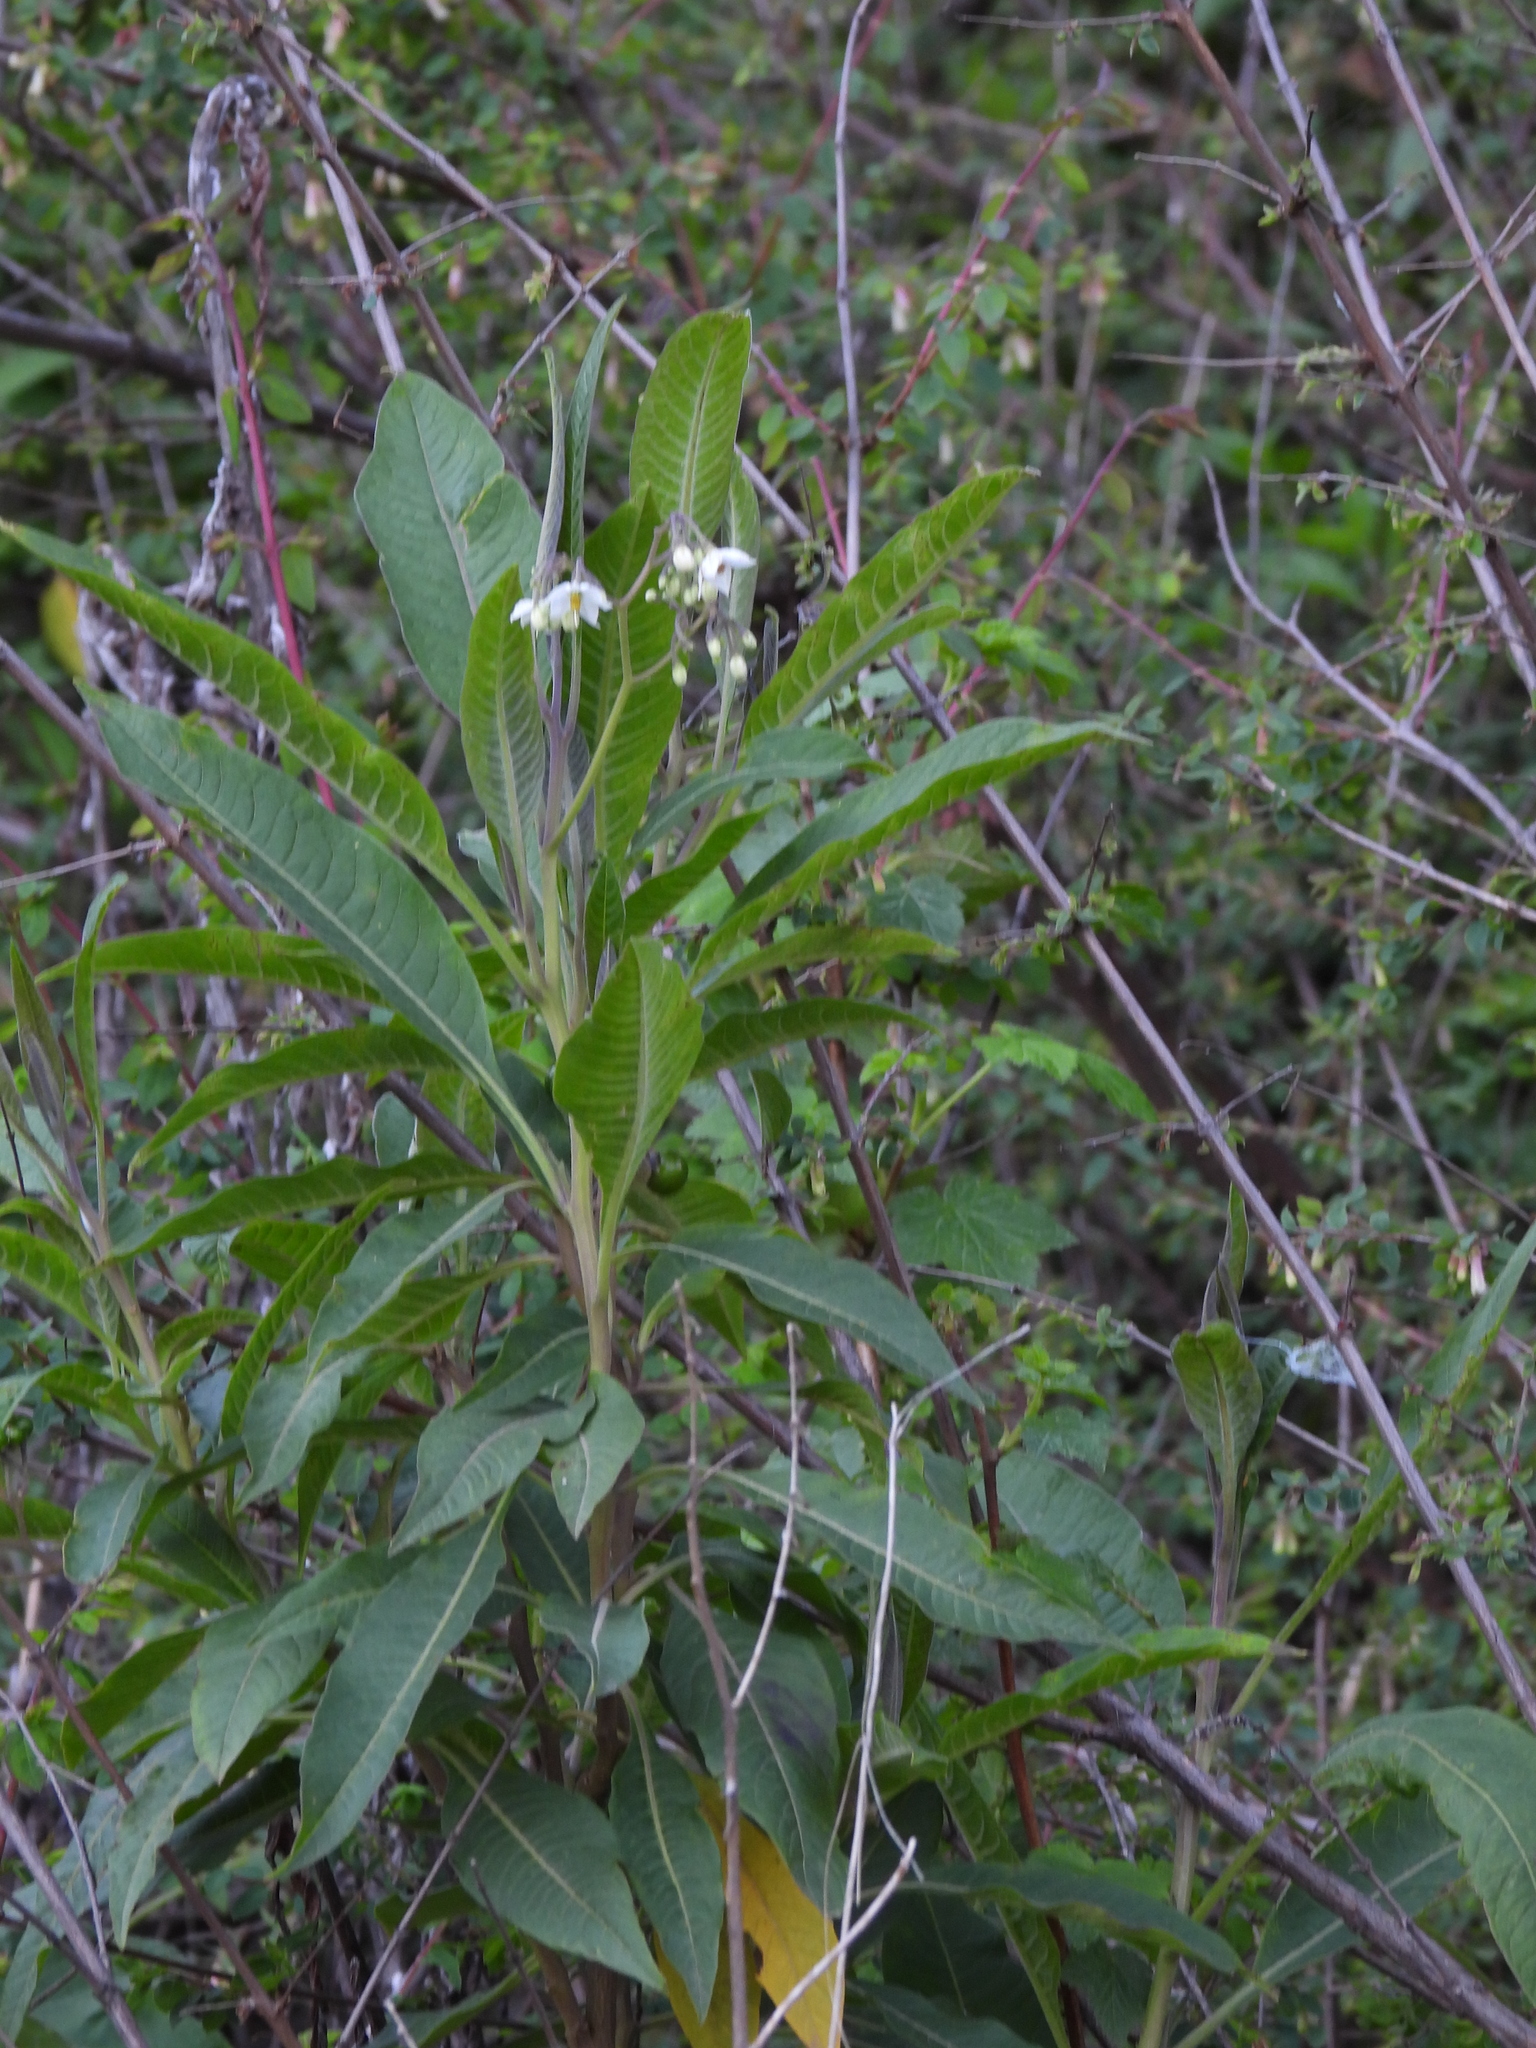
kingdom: Plantae
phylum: Tracheophyta
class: Magnoliopsida
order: Solanales
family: Solanaceae
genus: Solanum
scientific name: Solanum pubigerum
